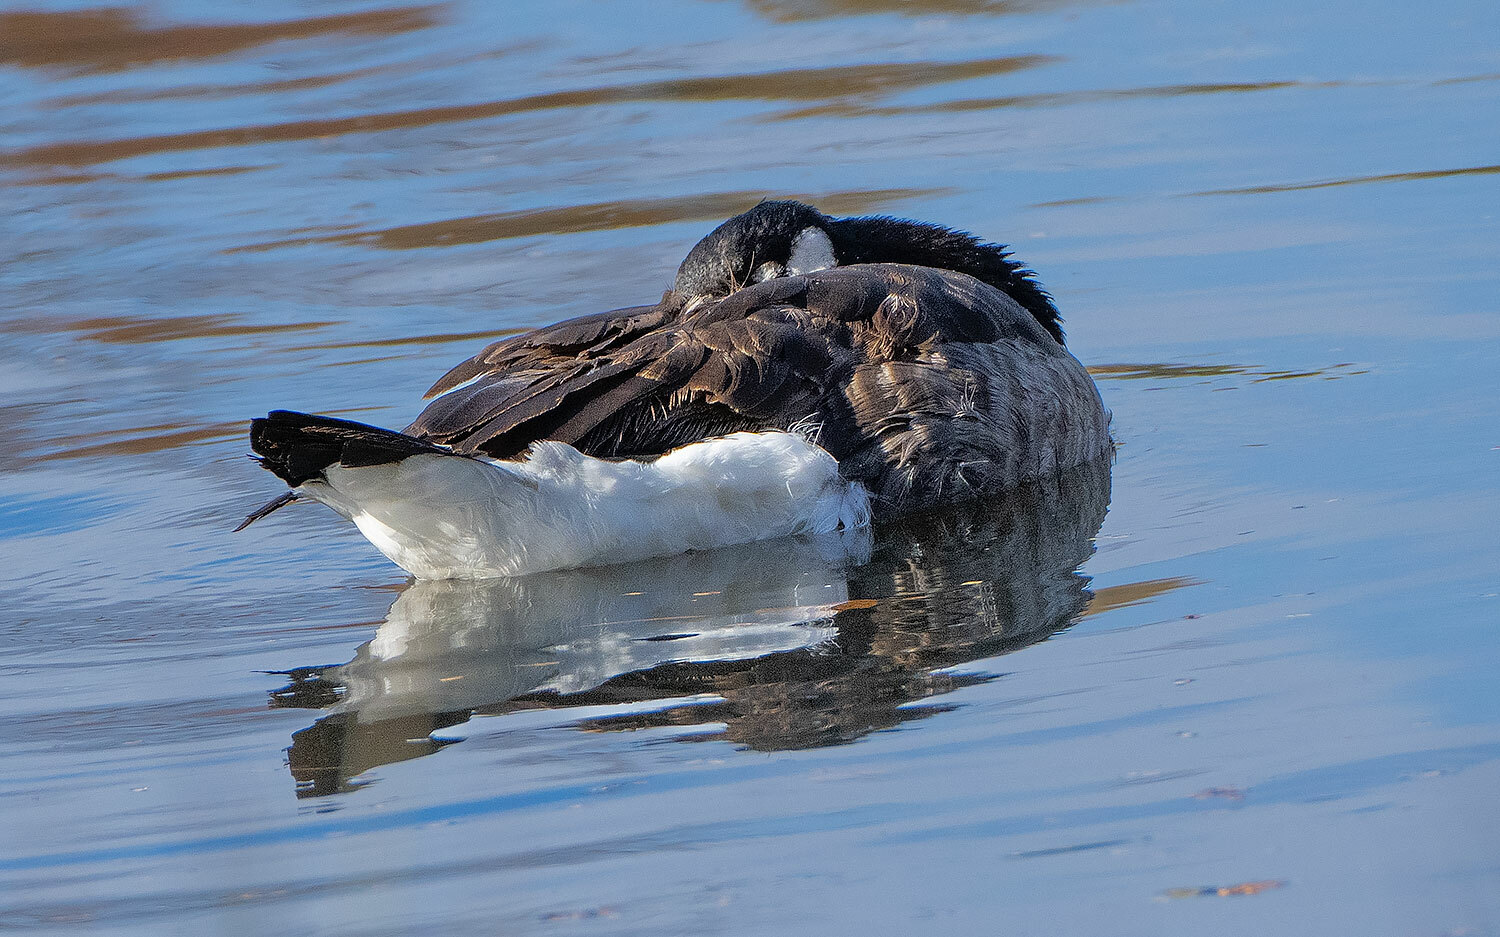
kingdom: Animalia
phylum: Chordata
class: Aves
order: Anseriformes
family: Anatidae
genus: Branta
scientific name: Branta canadensis
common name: Canada goose
